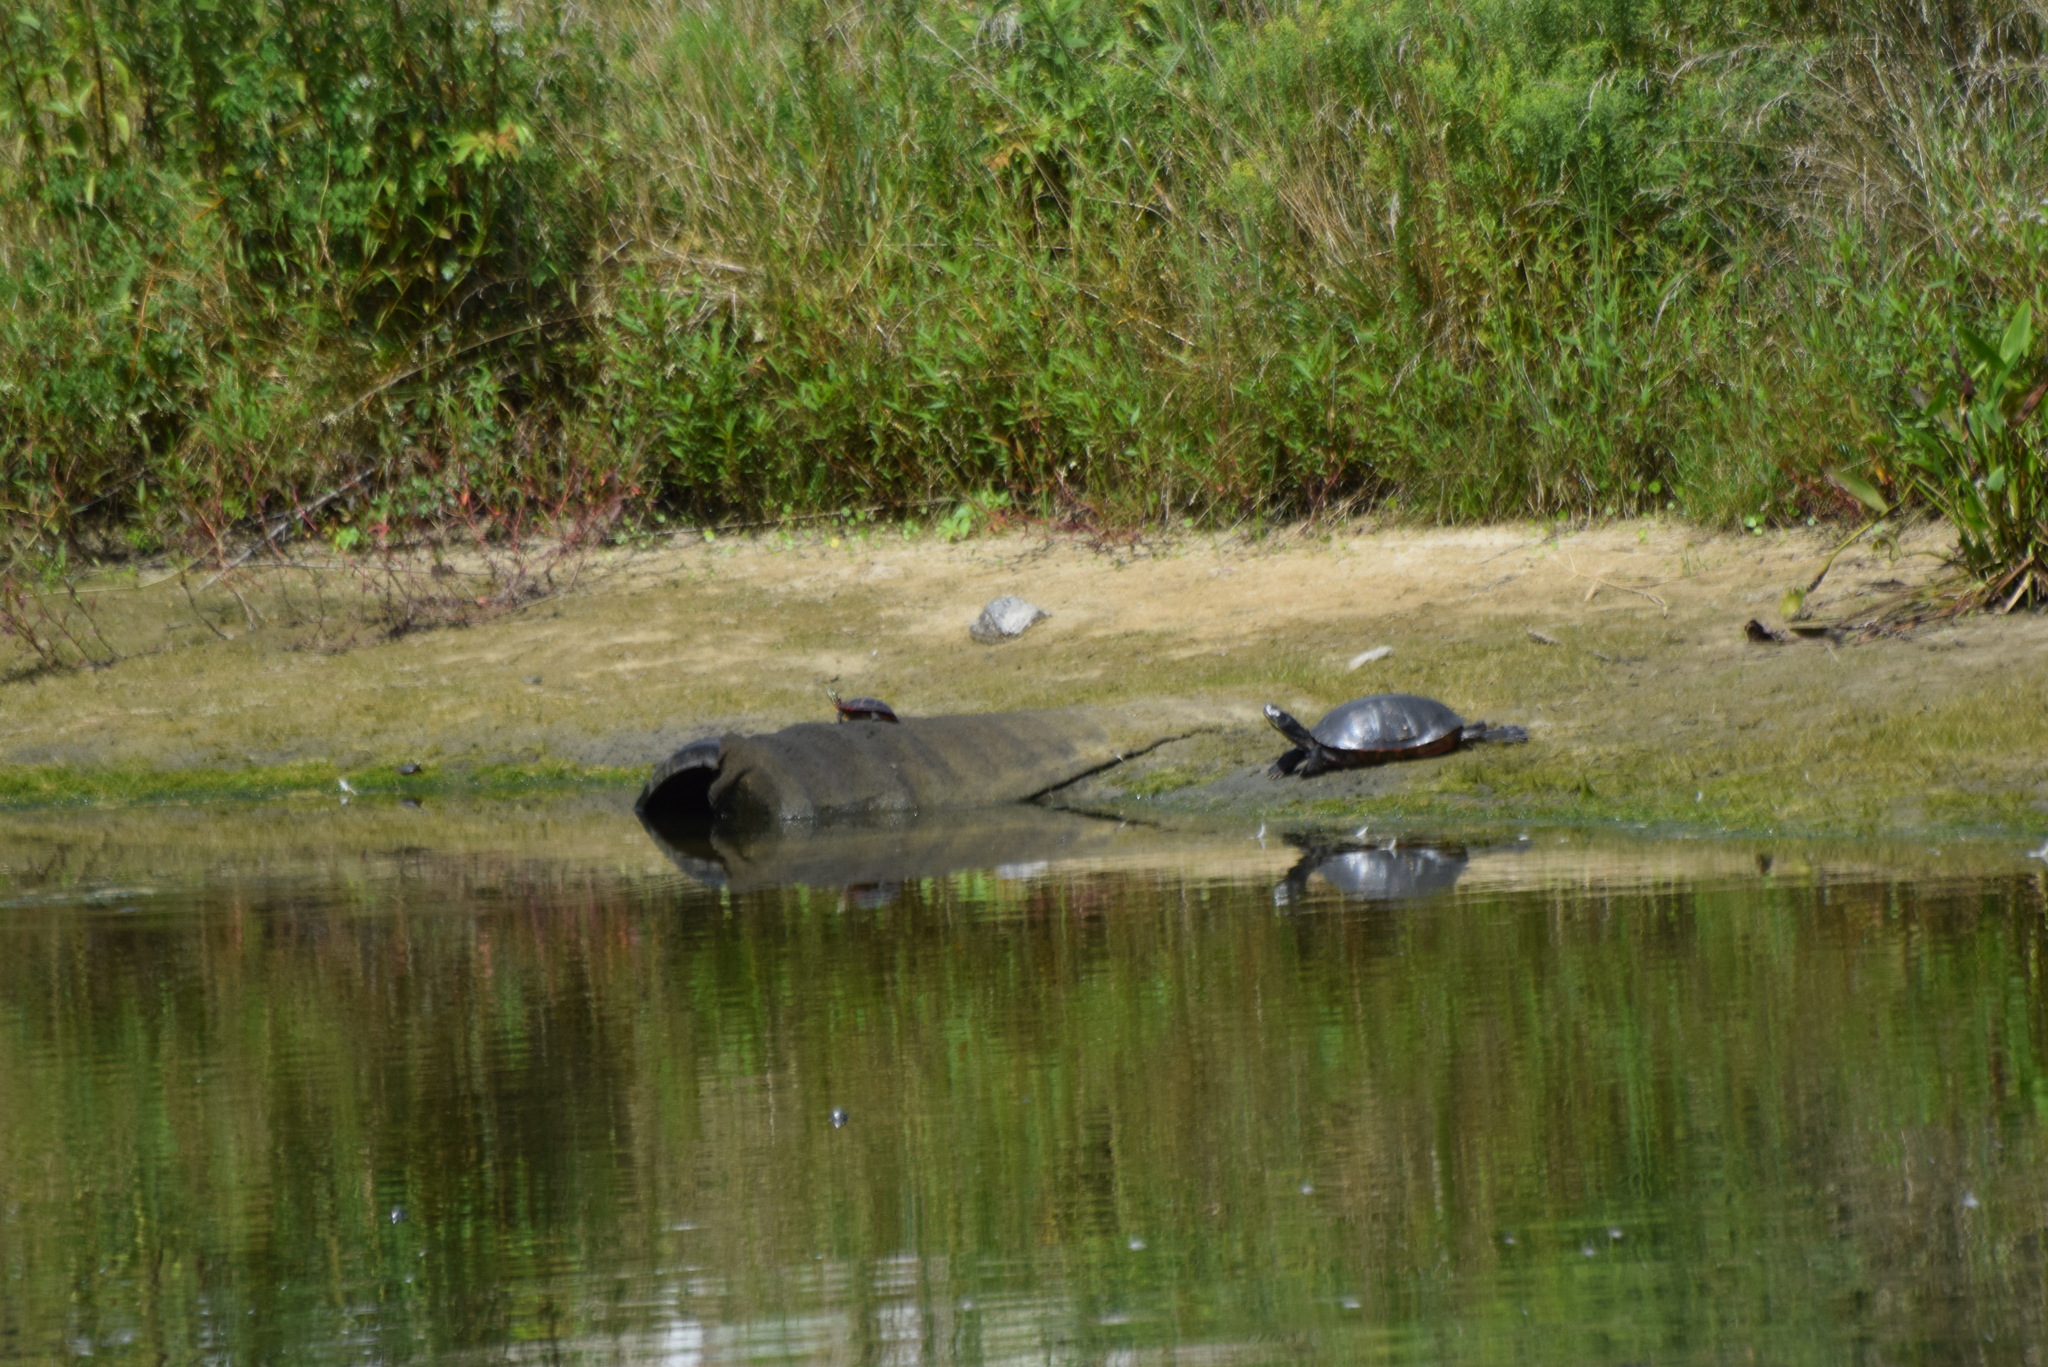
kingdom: Animalia
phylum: Chordata
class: Testudines
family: Emydidae
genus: Chrysemys
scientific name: Chrysemys picta
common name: Painted turtle
